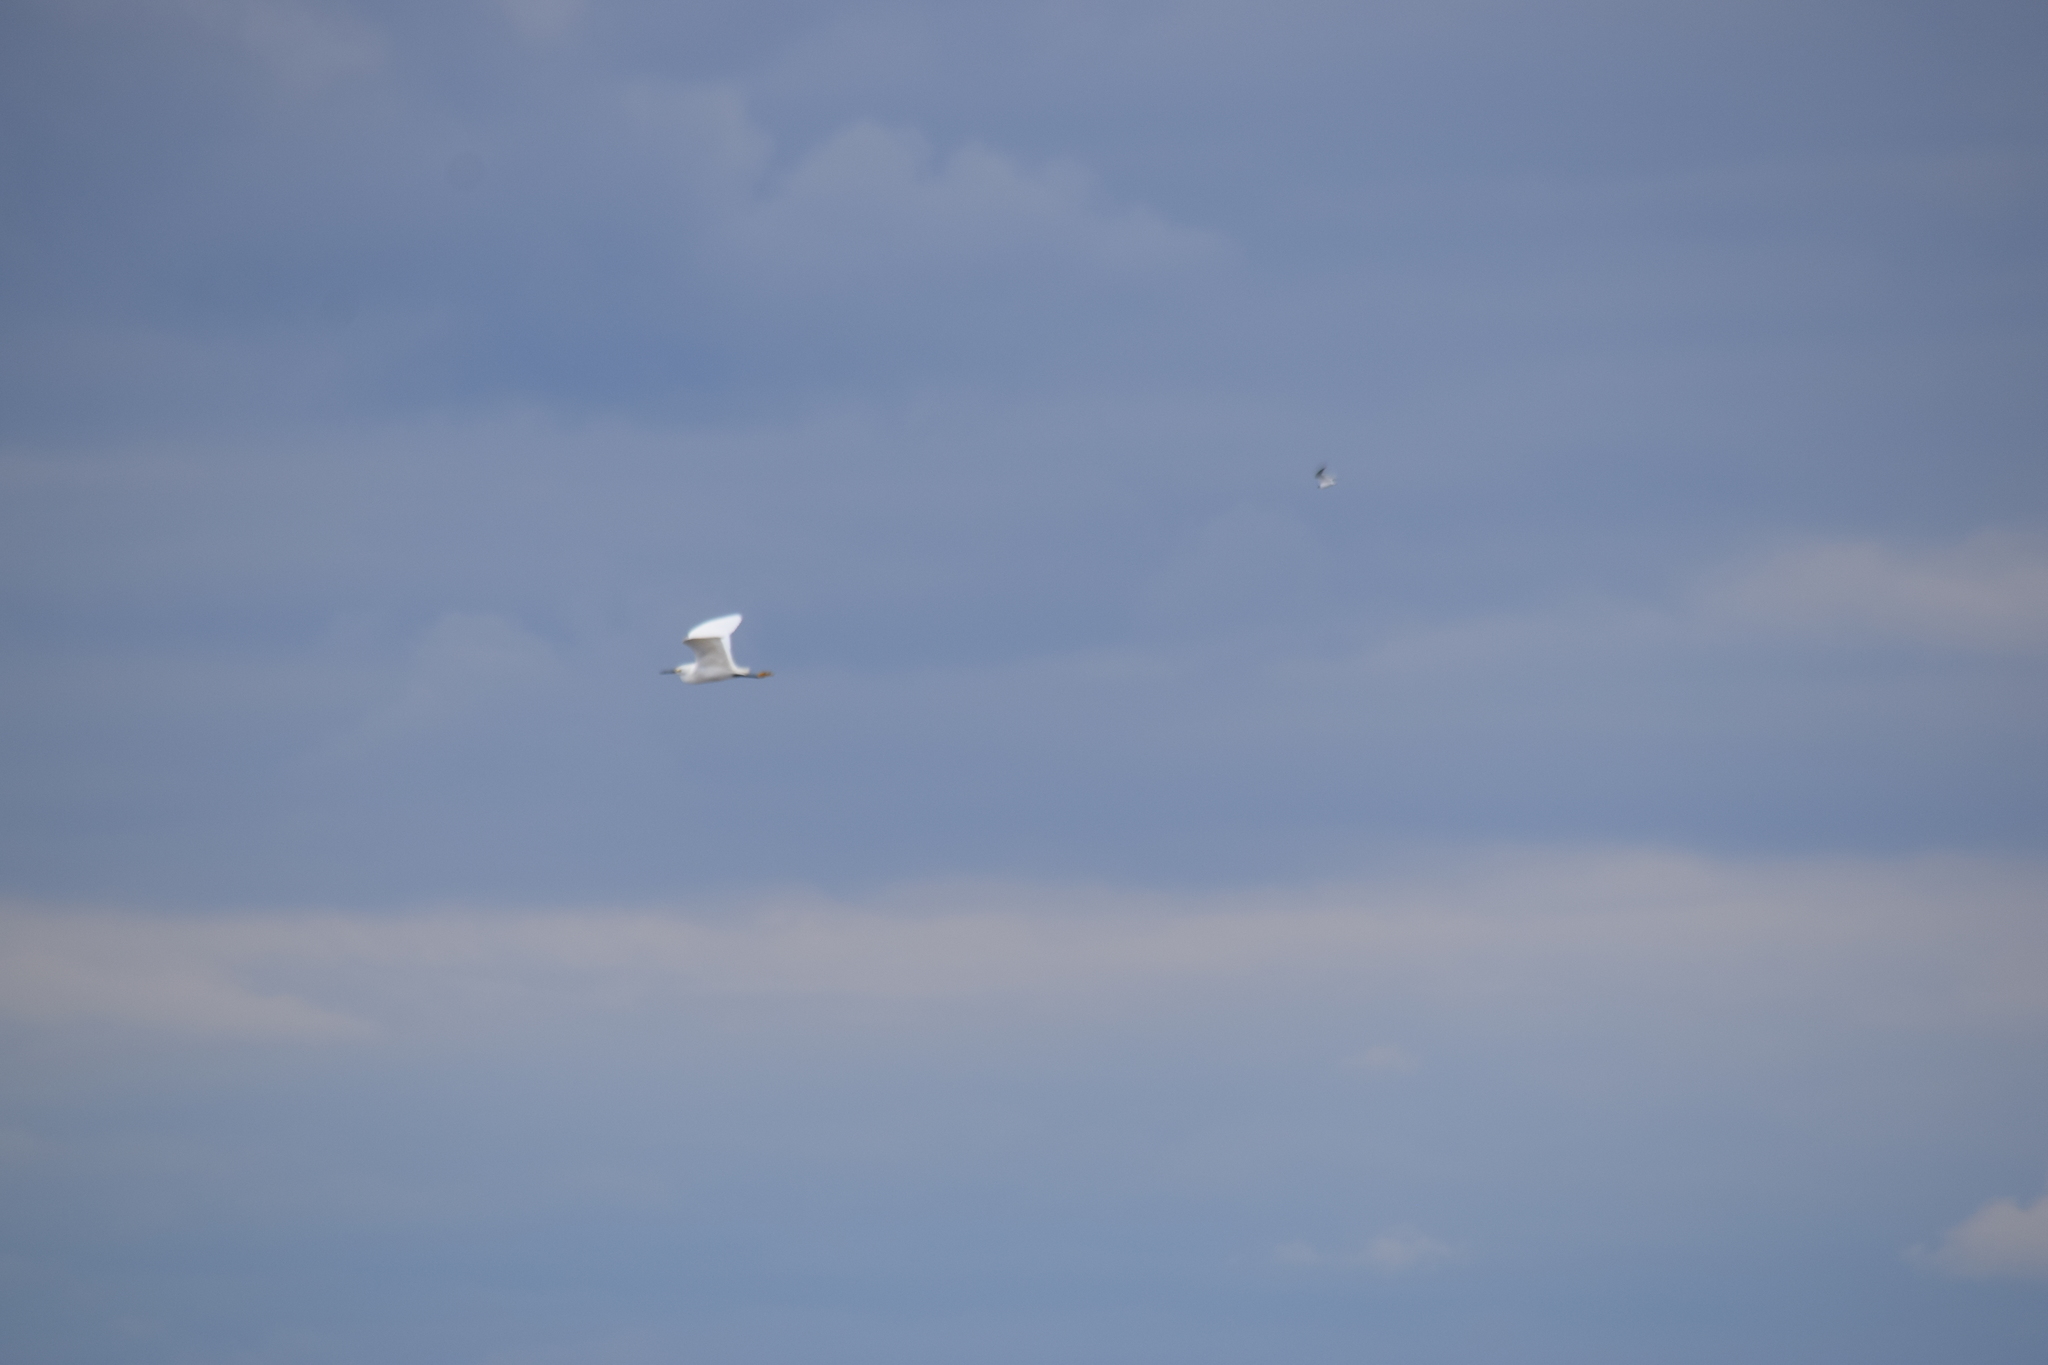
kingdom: Animalia
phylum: Chordata
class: Aves
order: Pelecaniformes
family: Ardeidae
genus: Egretta
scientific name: Egretta thula
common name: Snowy egret
